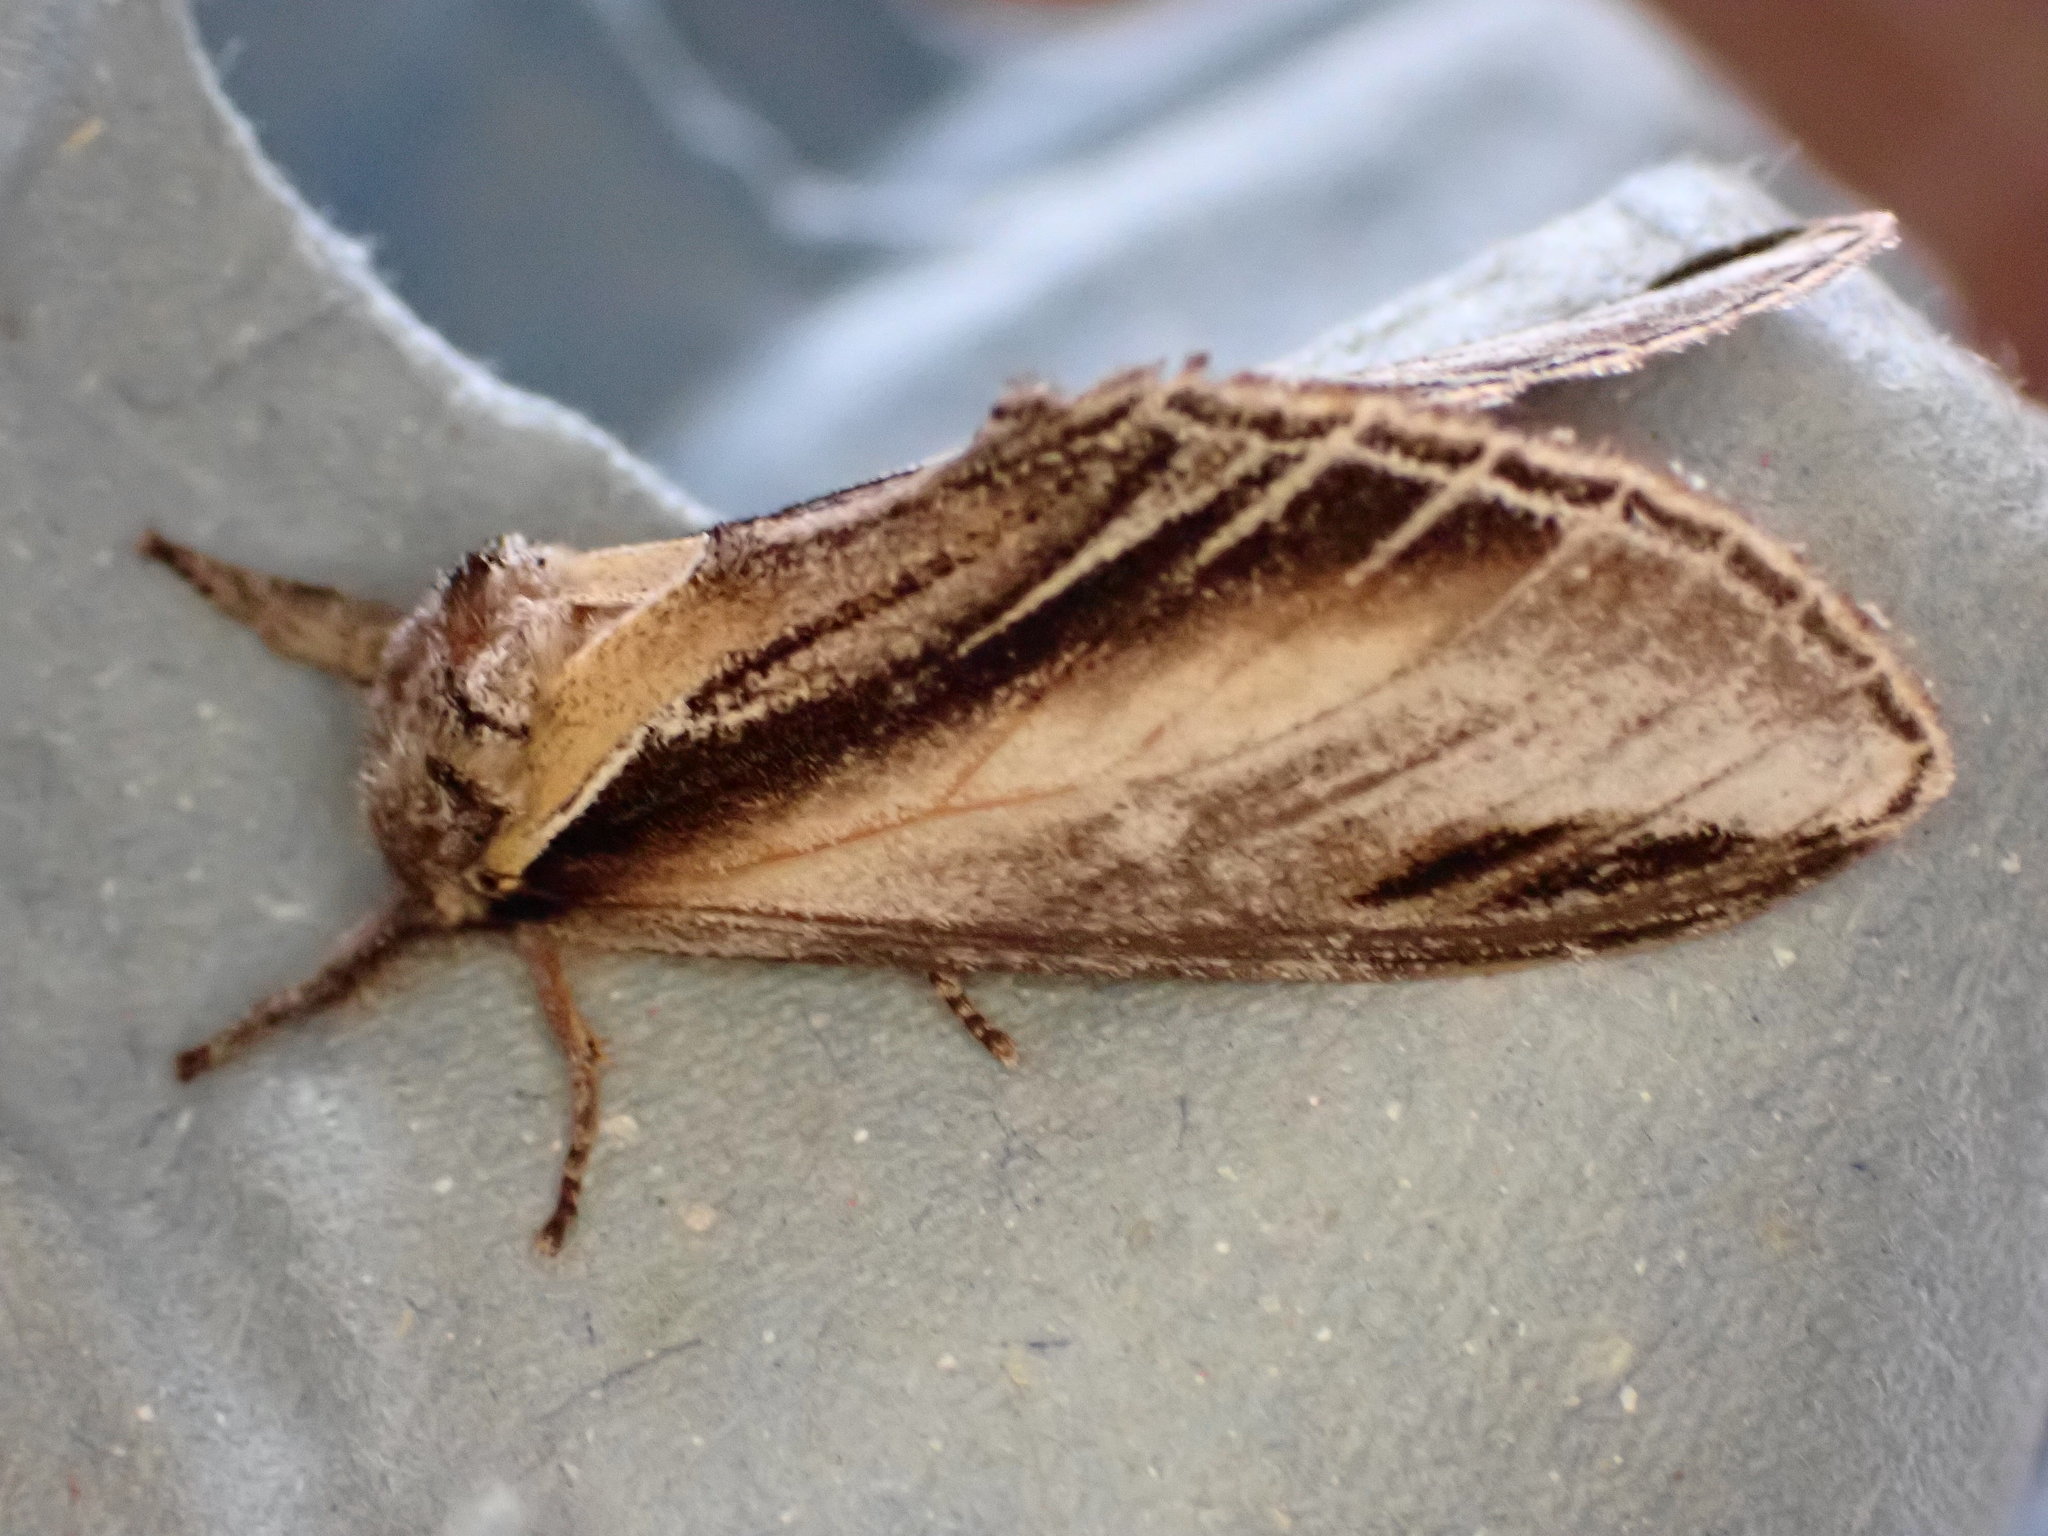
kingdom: Animalia
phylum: Arthropoda
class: Insecta
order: Lepidoptera
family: Notodontidae
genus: Pheosia
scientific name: Pheosia tremula
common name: Swallow prominent
